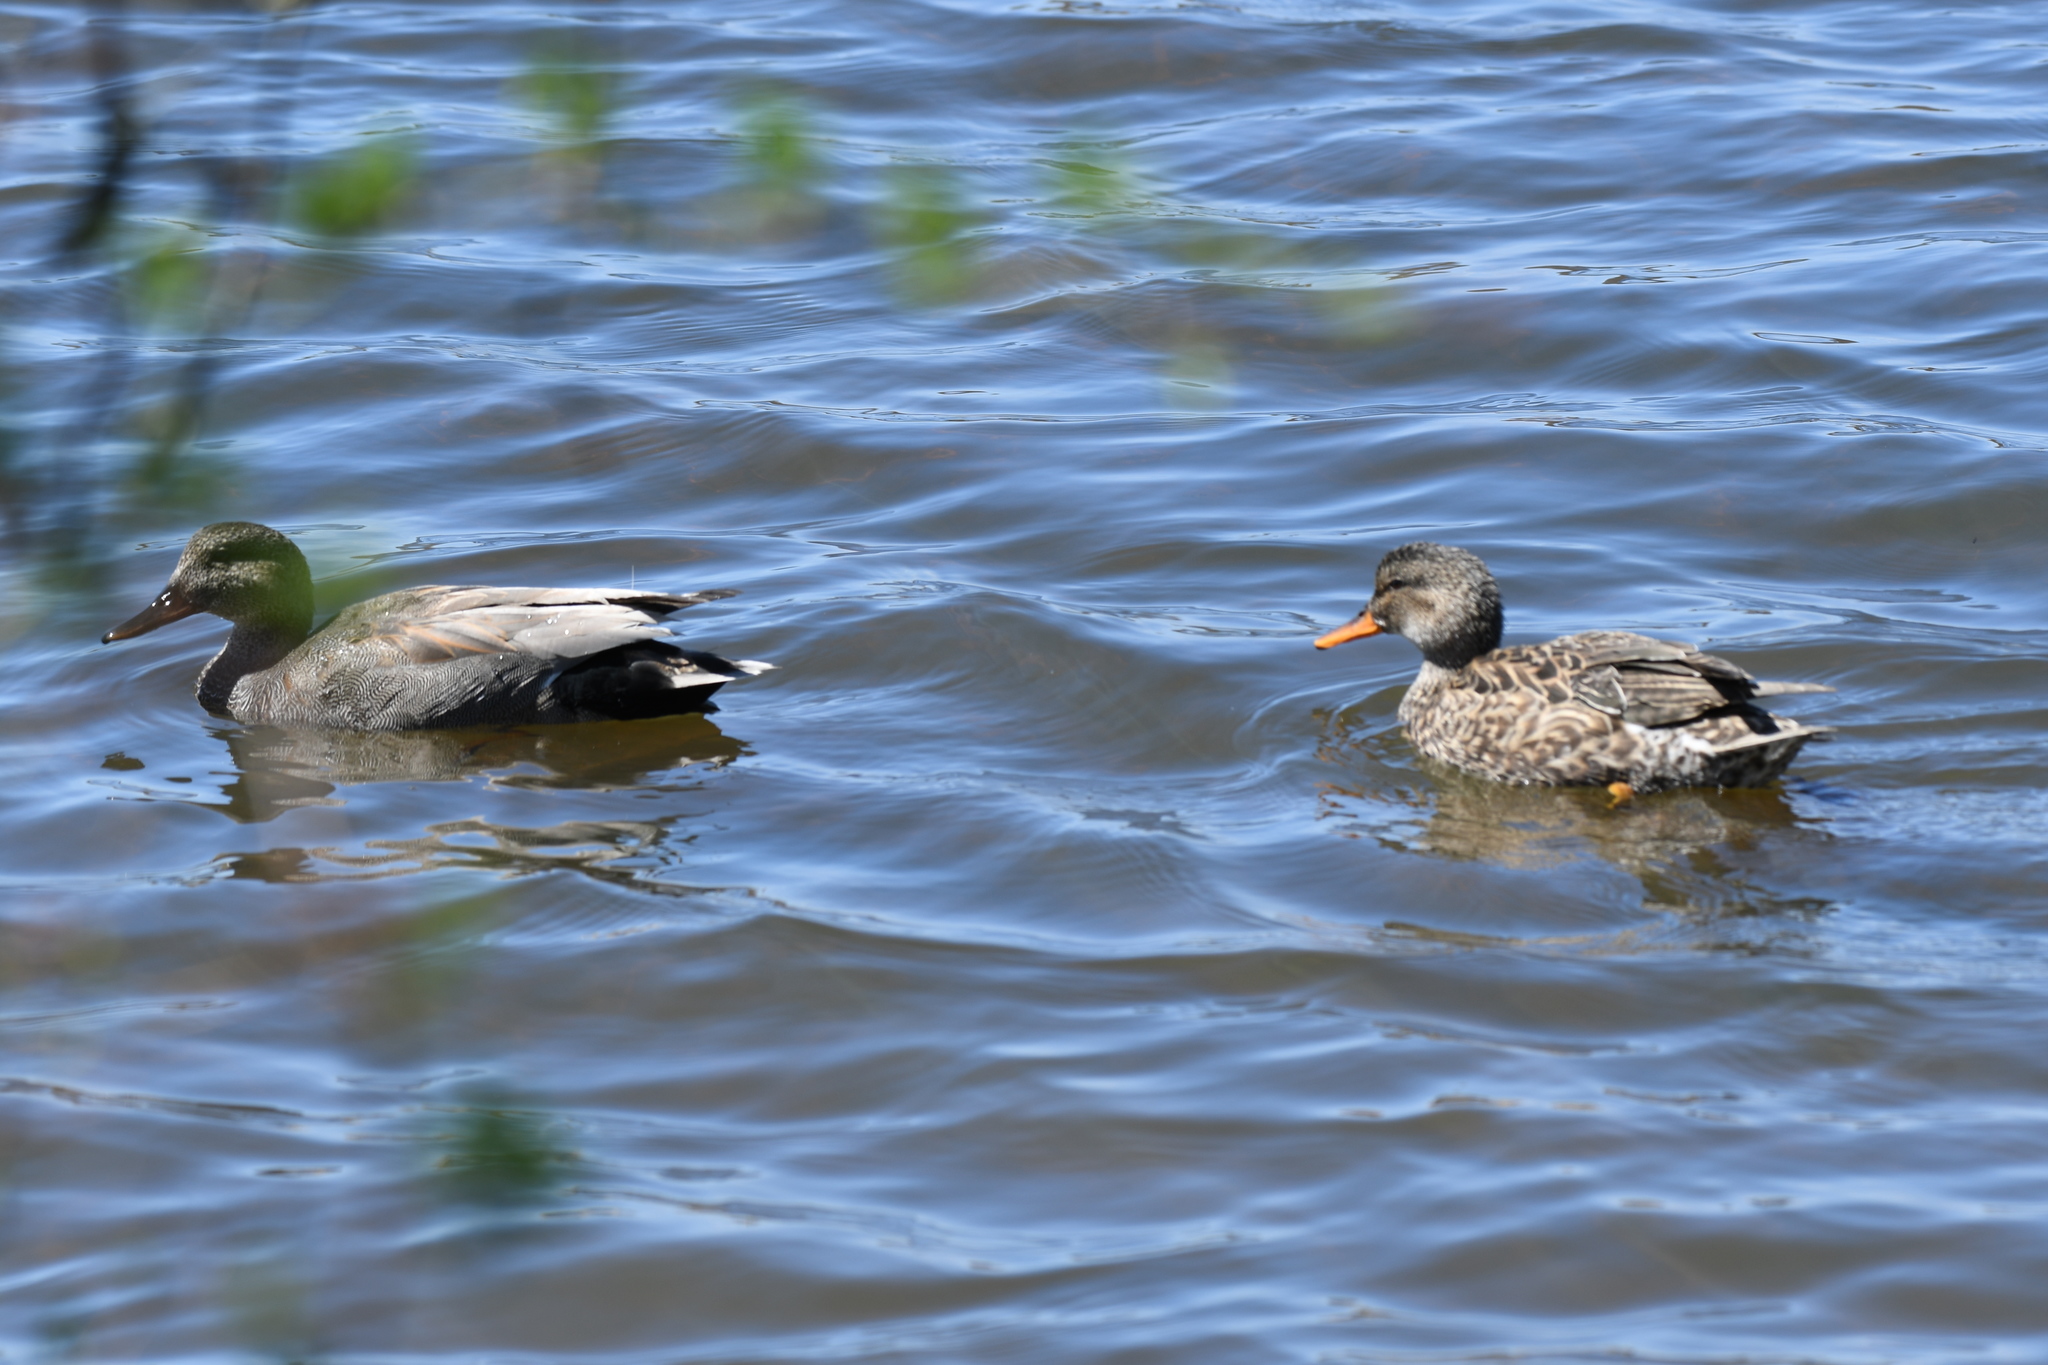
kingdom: Animalia
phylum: Chordata
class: Aves
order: Anseriformes
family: Anatidae
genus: Mareca
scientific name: Mareca strepera
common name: Gadwall
